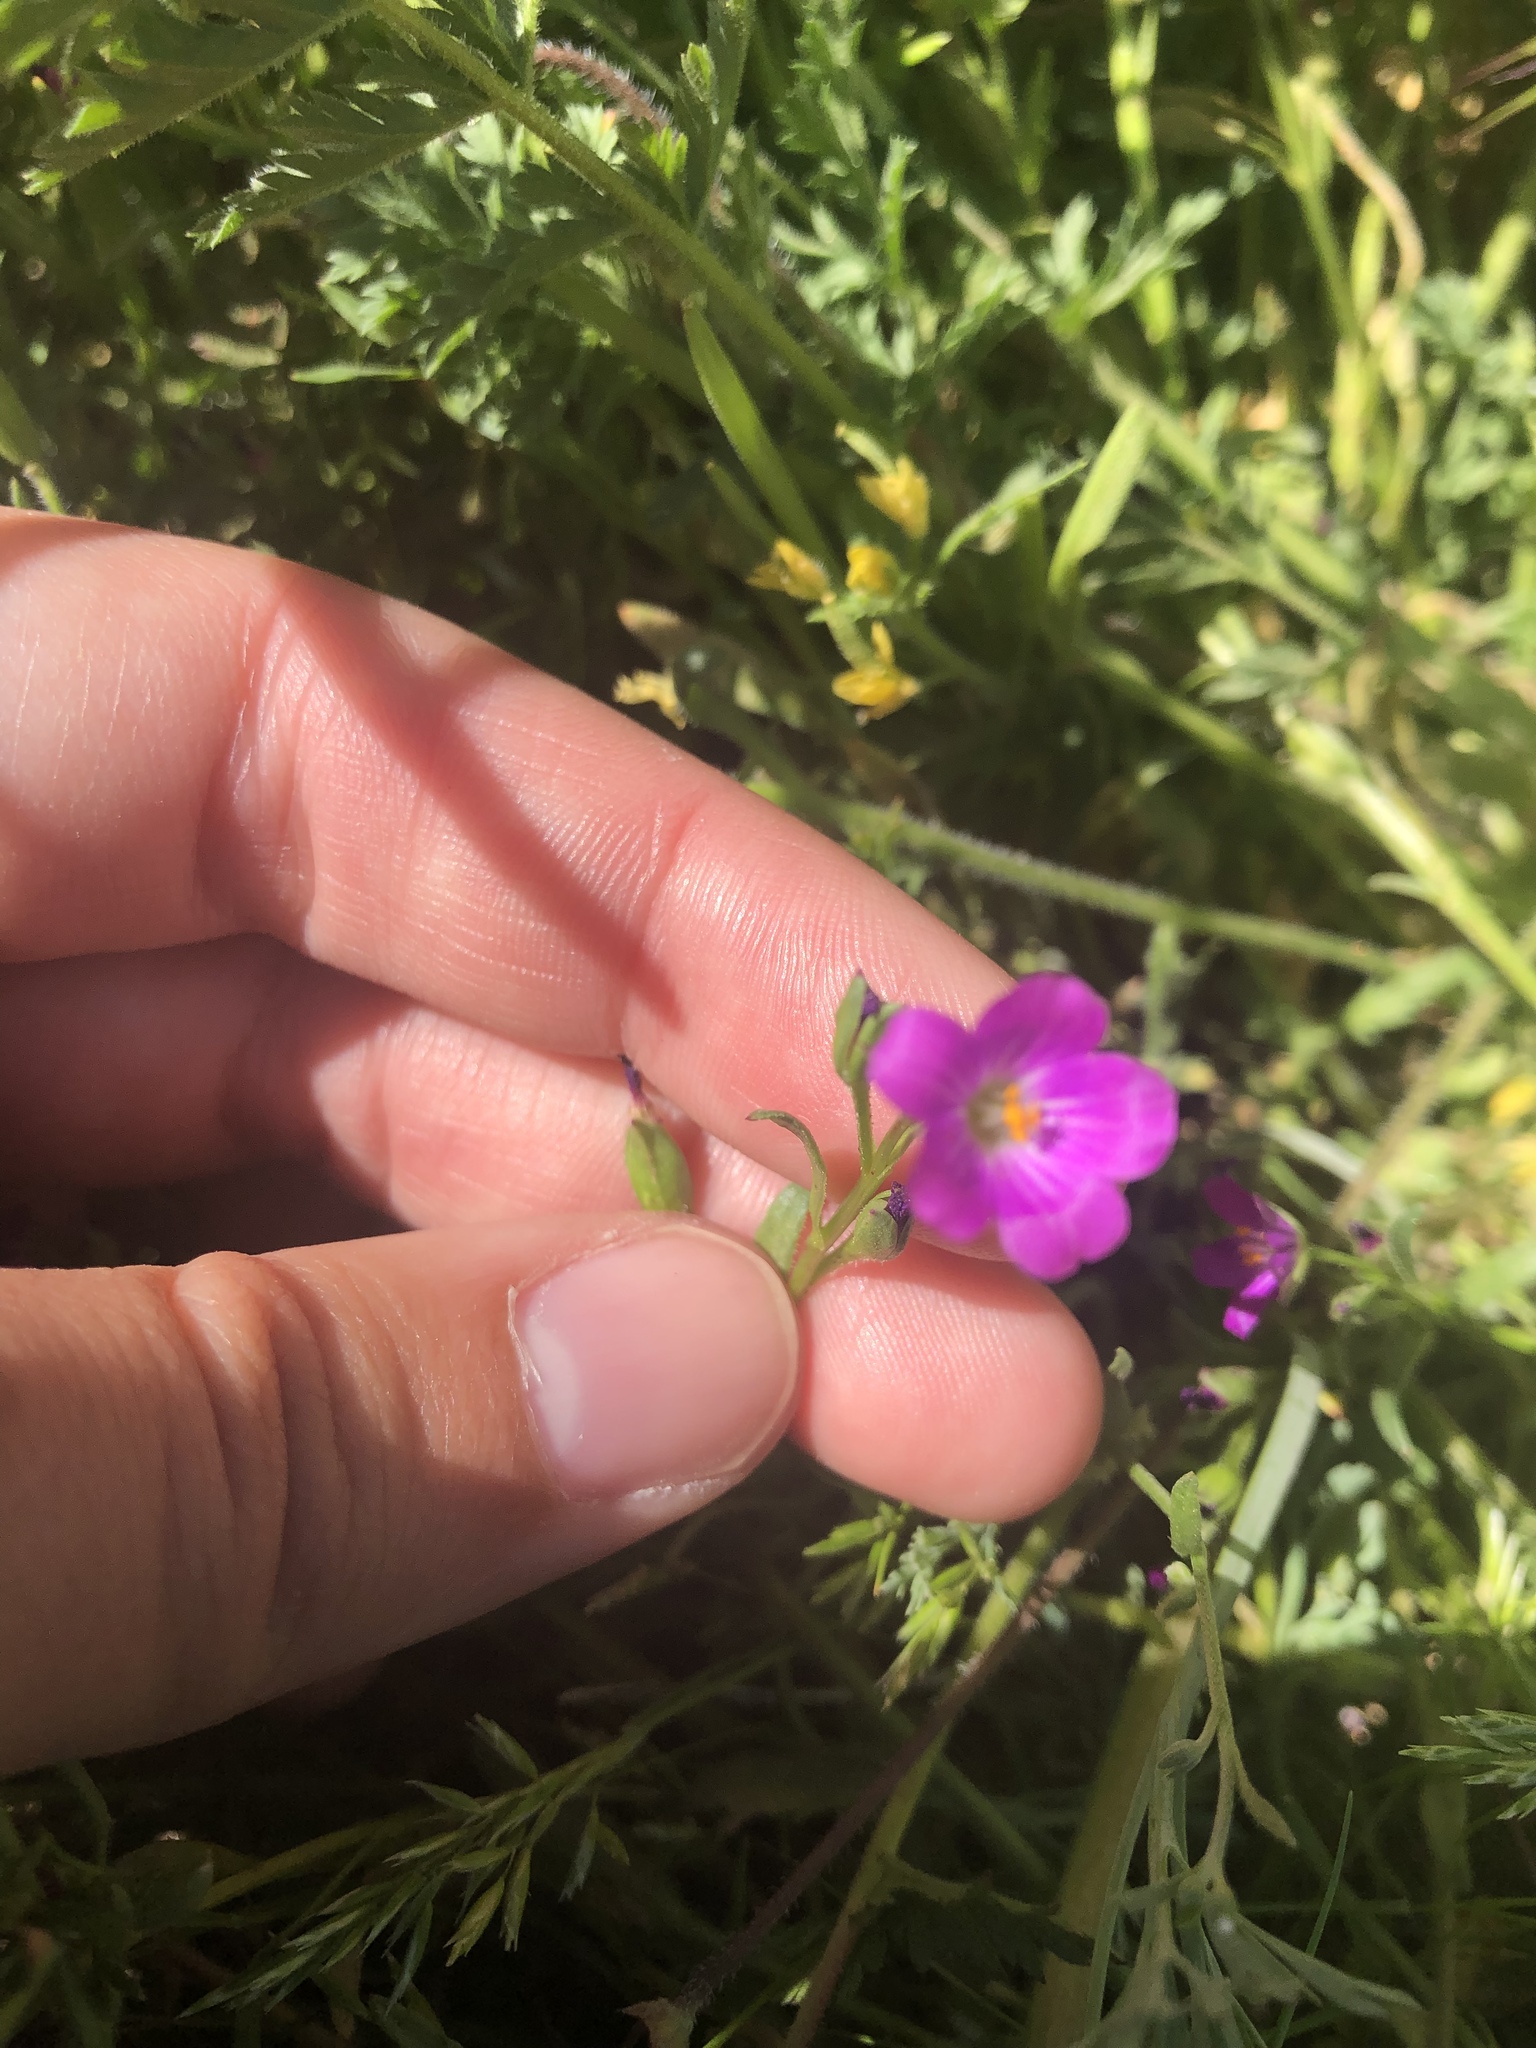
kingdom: Plantae
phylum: Tracheophyta
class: Magnoliopsida
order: Caryophyllales
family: Montiaceae
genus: Calandrinia
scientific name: Calandrinia menziesii
